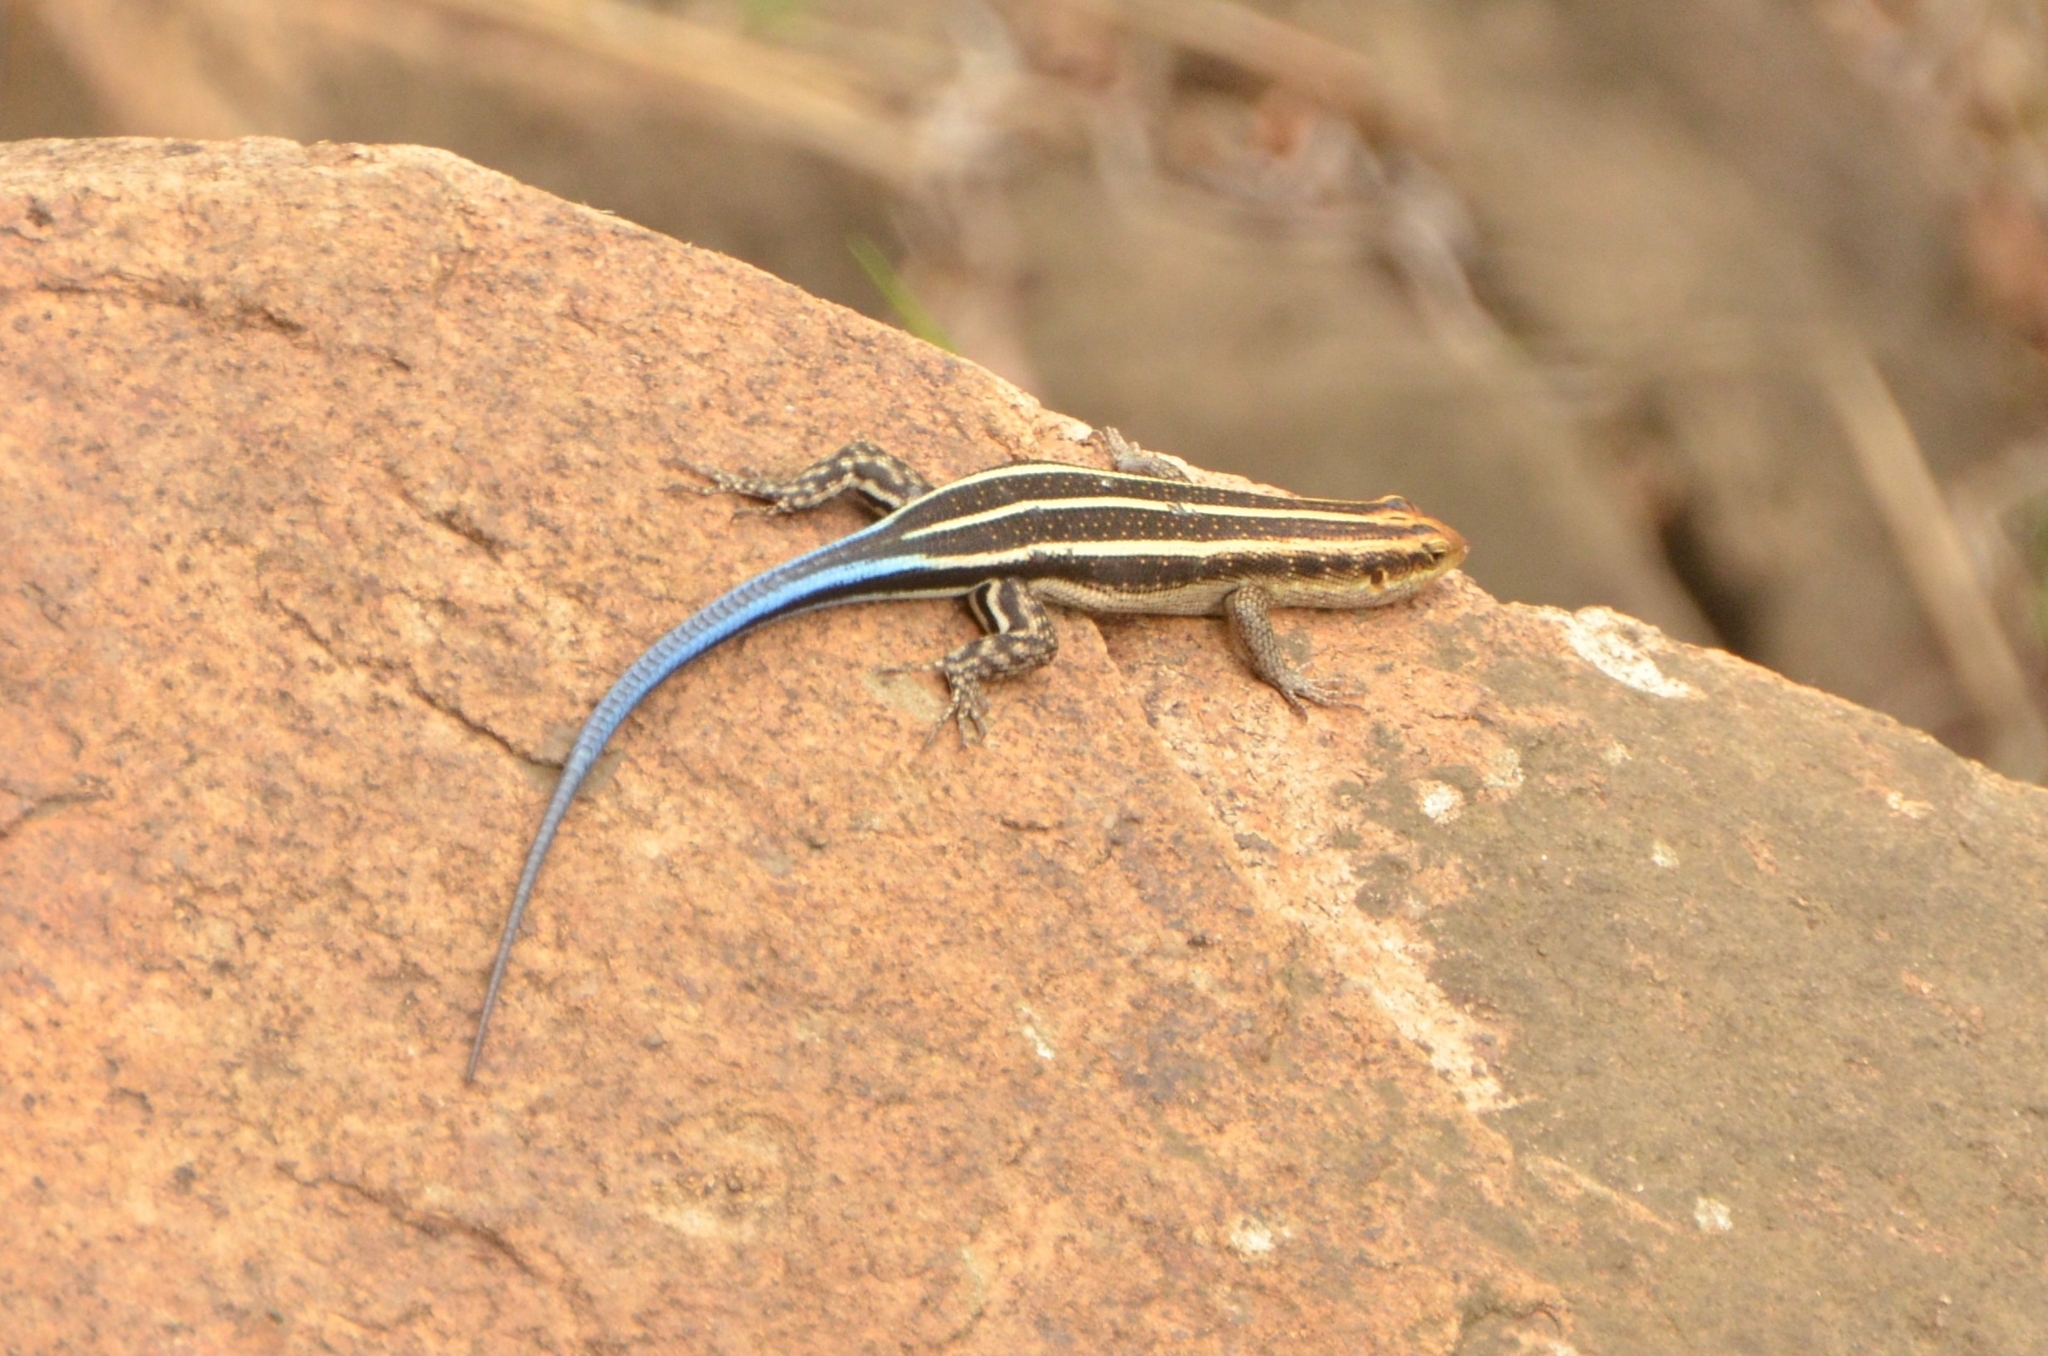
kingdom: Animalia
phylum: Chordata
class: Squamata
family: Scincidae
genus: Trachylepis
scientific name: Trachylepis margaritifera
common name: Rainbow skink
